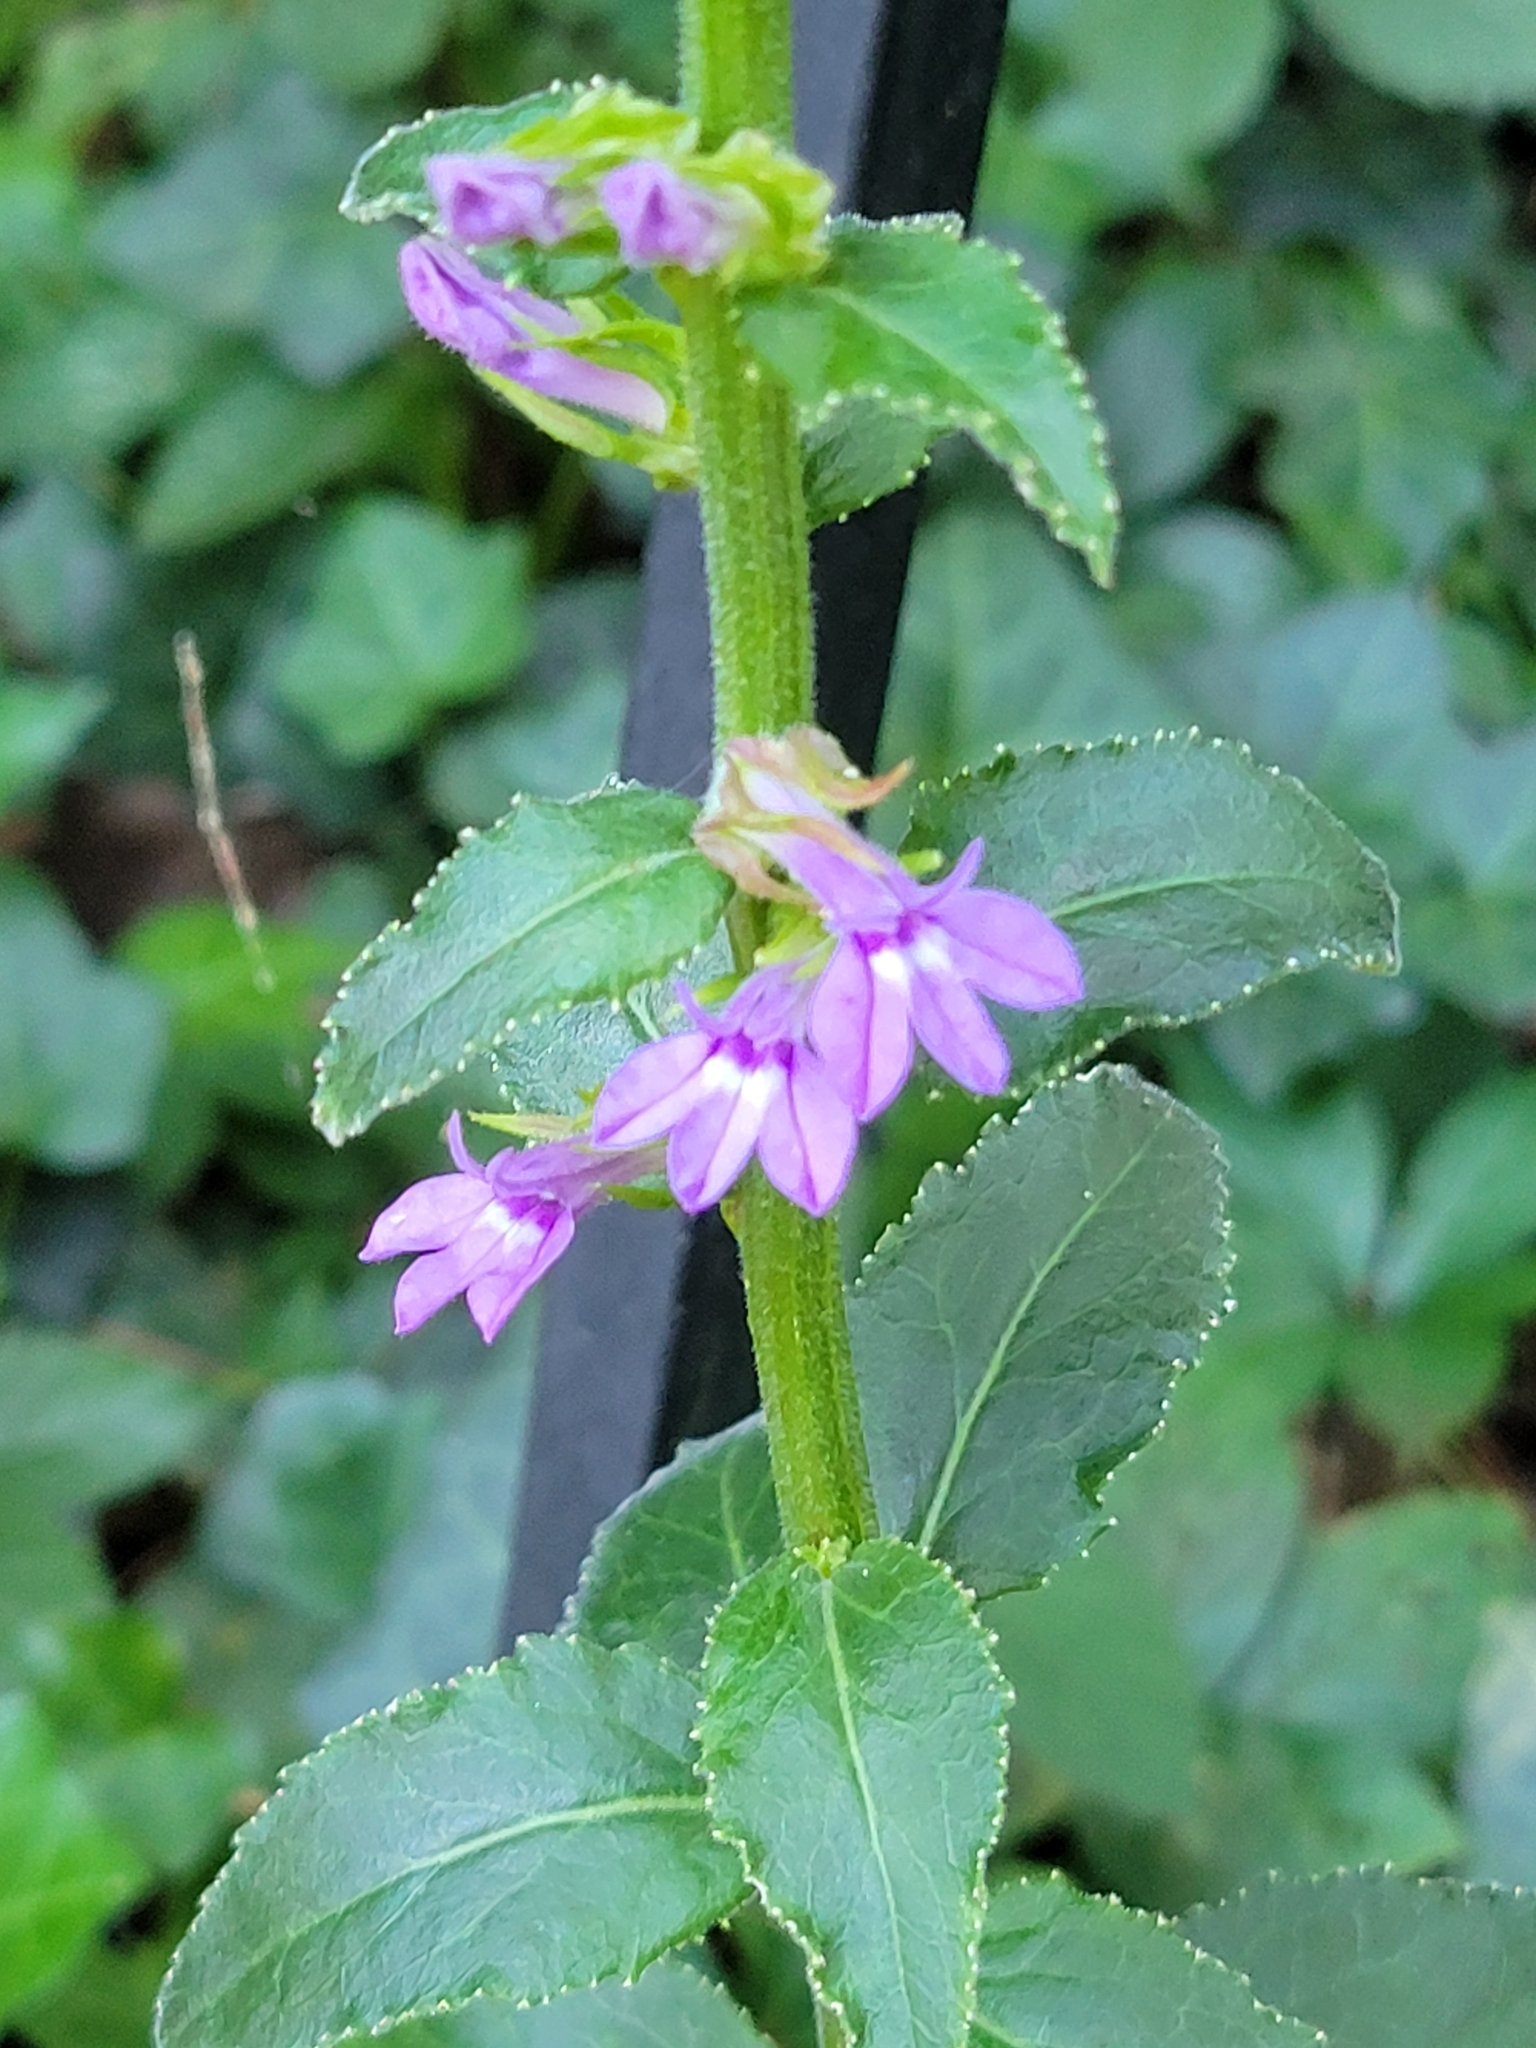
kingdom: Plantae
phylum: Tracheophyta
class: Magnoliopsida
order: Asterales
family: Campanulaceae
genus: Lobelia
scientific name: Lobelia puberula
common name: Purple dewdrop
